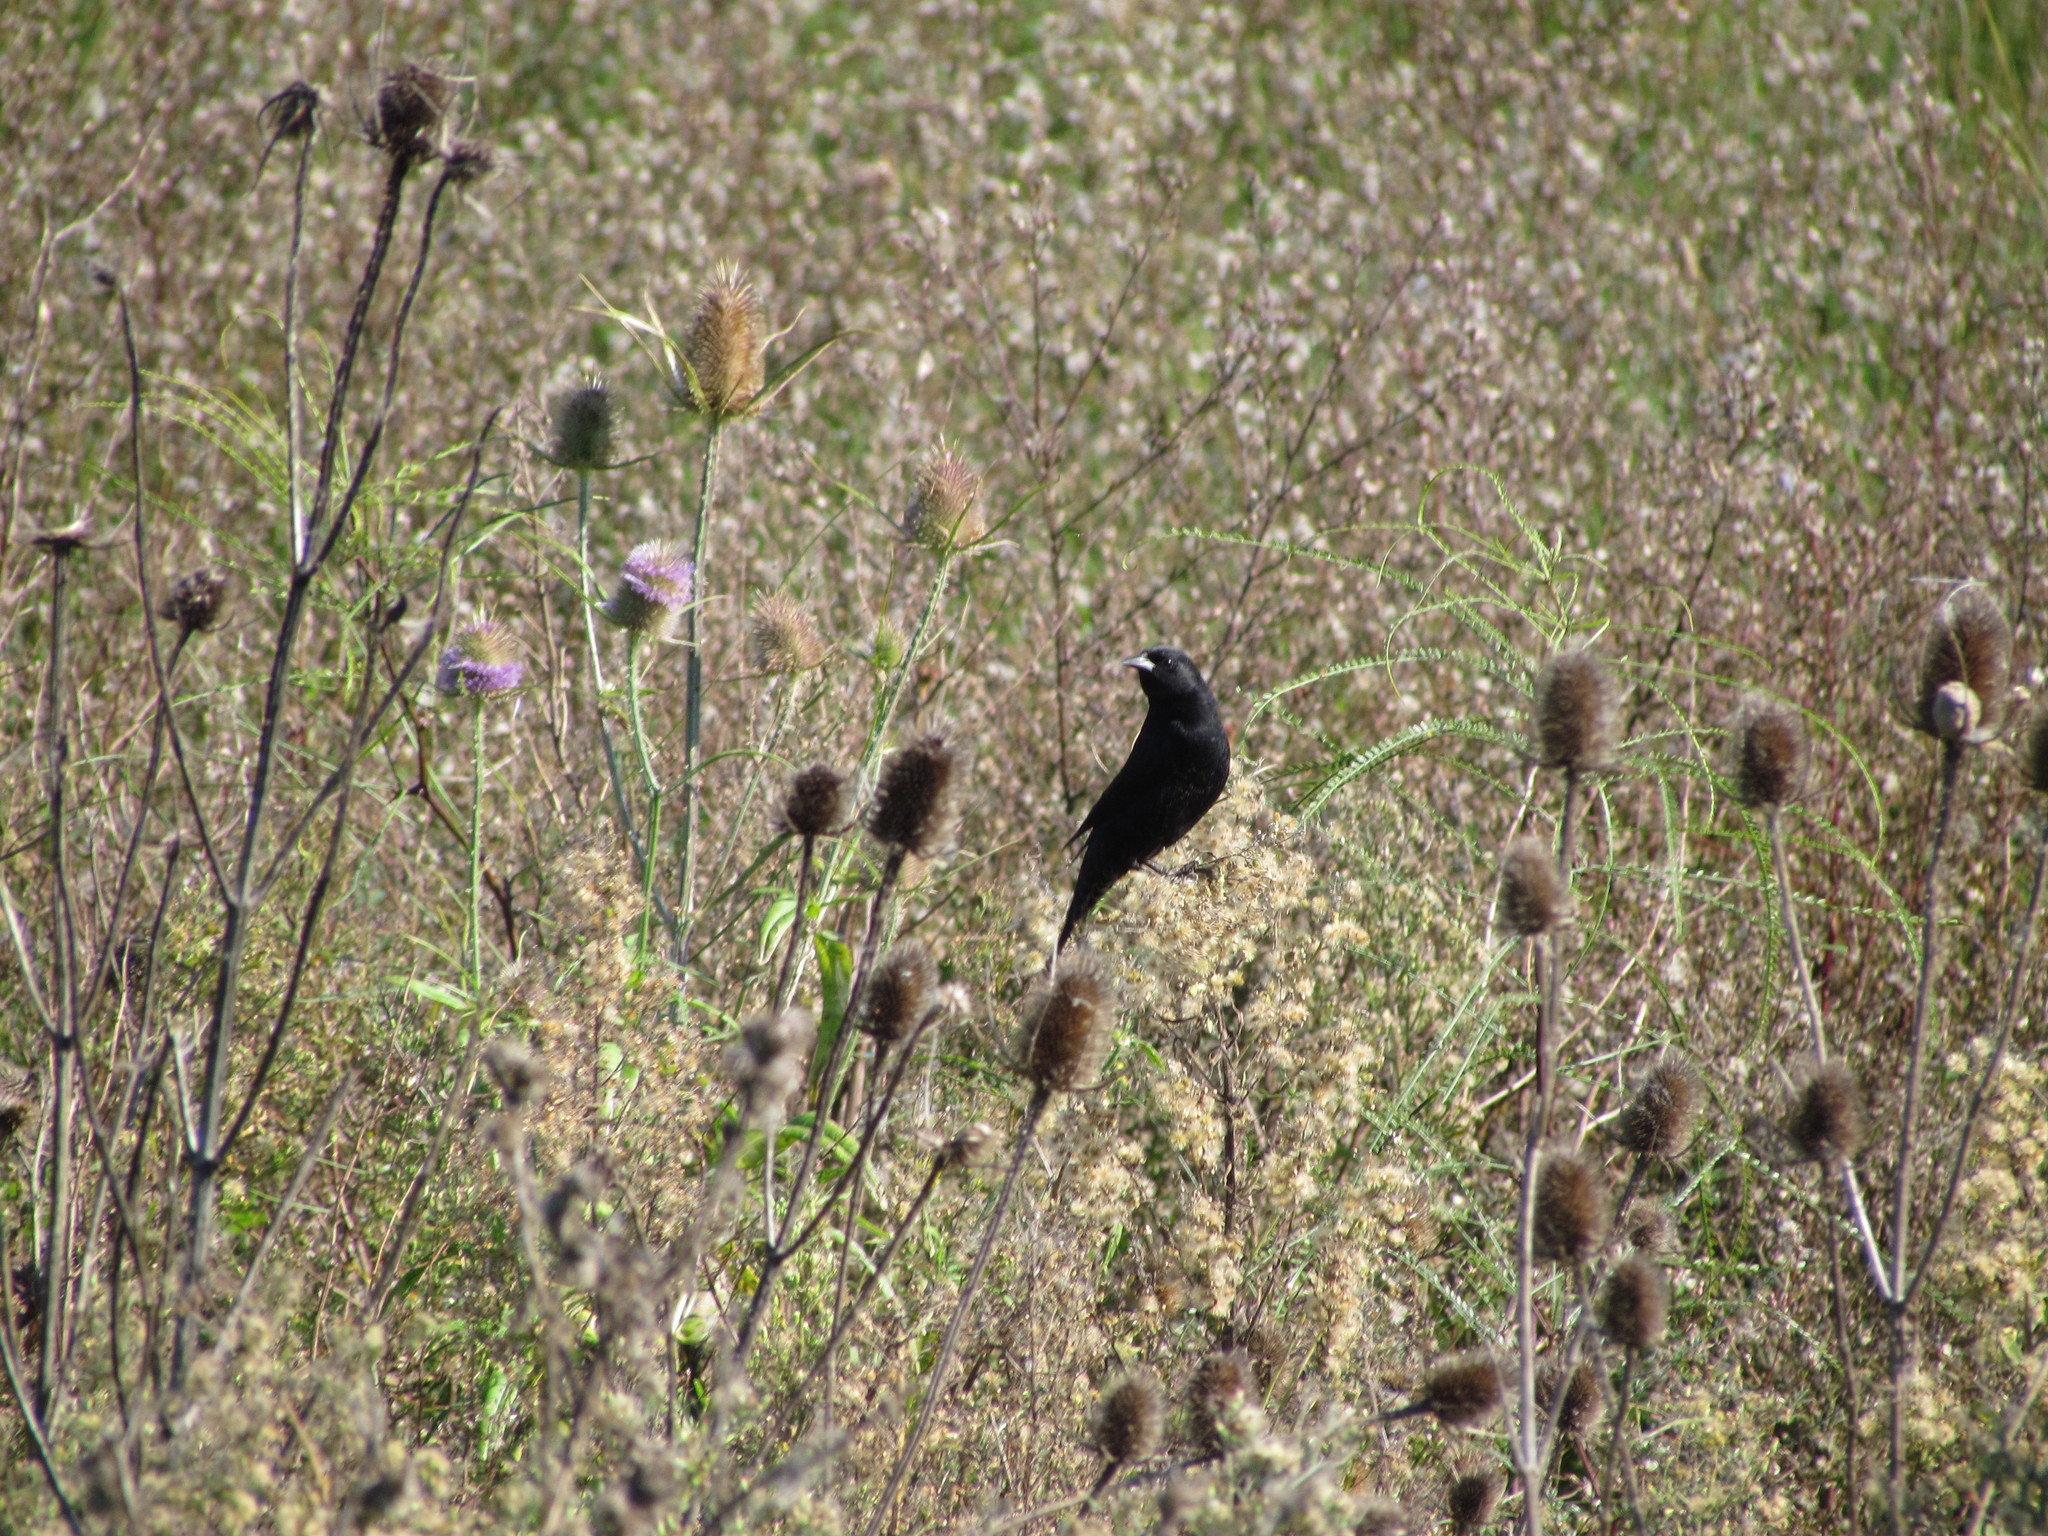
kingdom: Animalia
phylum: Chordata
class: Aves
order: Passeriformes
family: Icteridae
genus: Agelasticus
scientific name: Agelasticus thilius
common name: Yellow-winged blackbird
